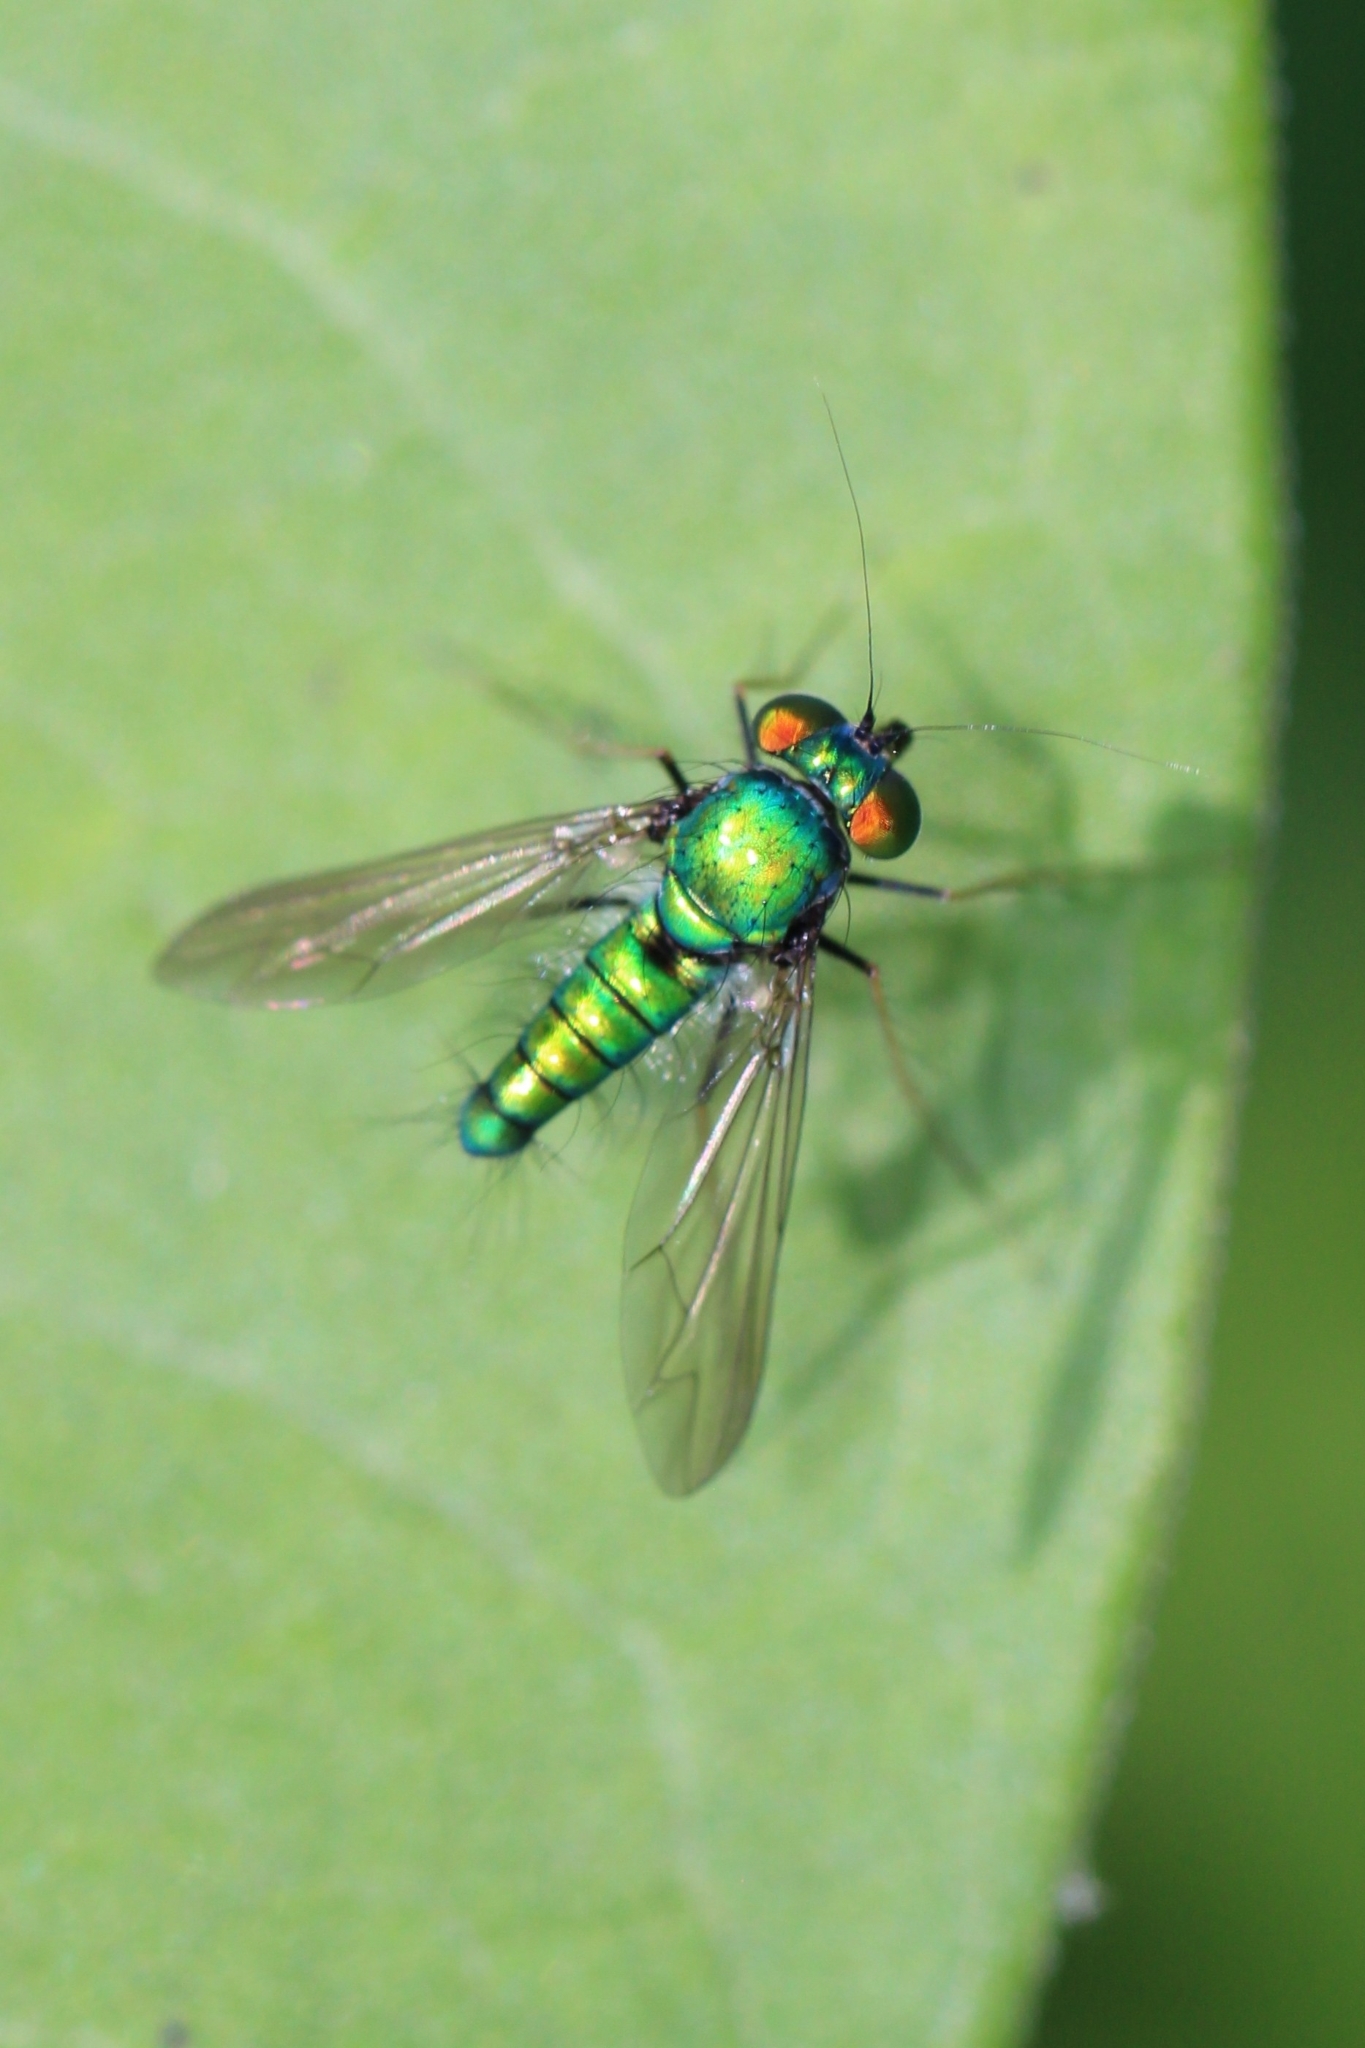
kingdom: Animalia
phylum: Arthropoda
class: Insecta
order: Diptera
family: Dolichopodidae
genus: Condylostylus
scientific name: Condylostylus comatus
